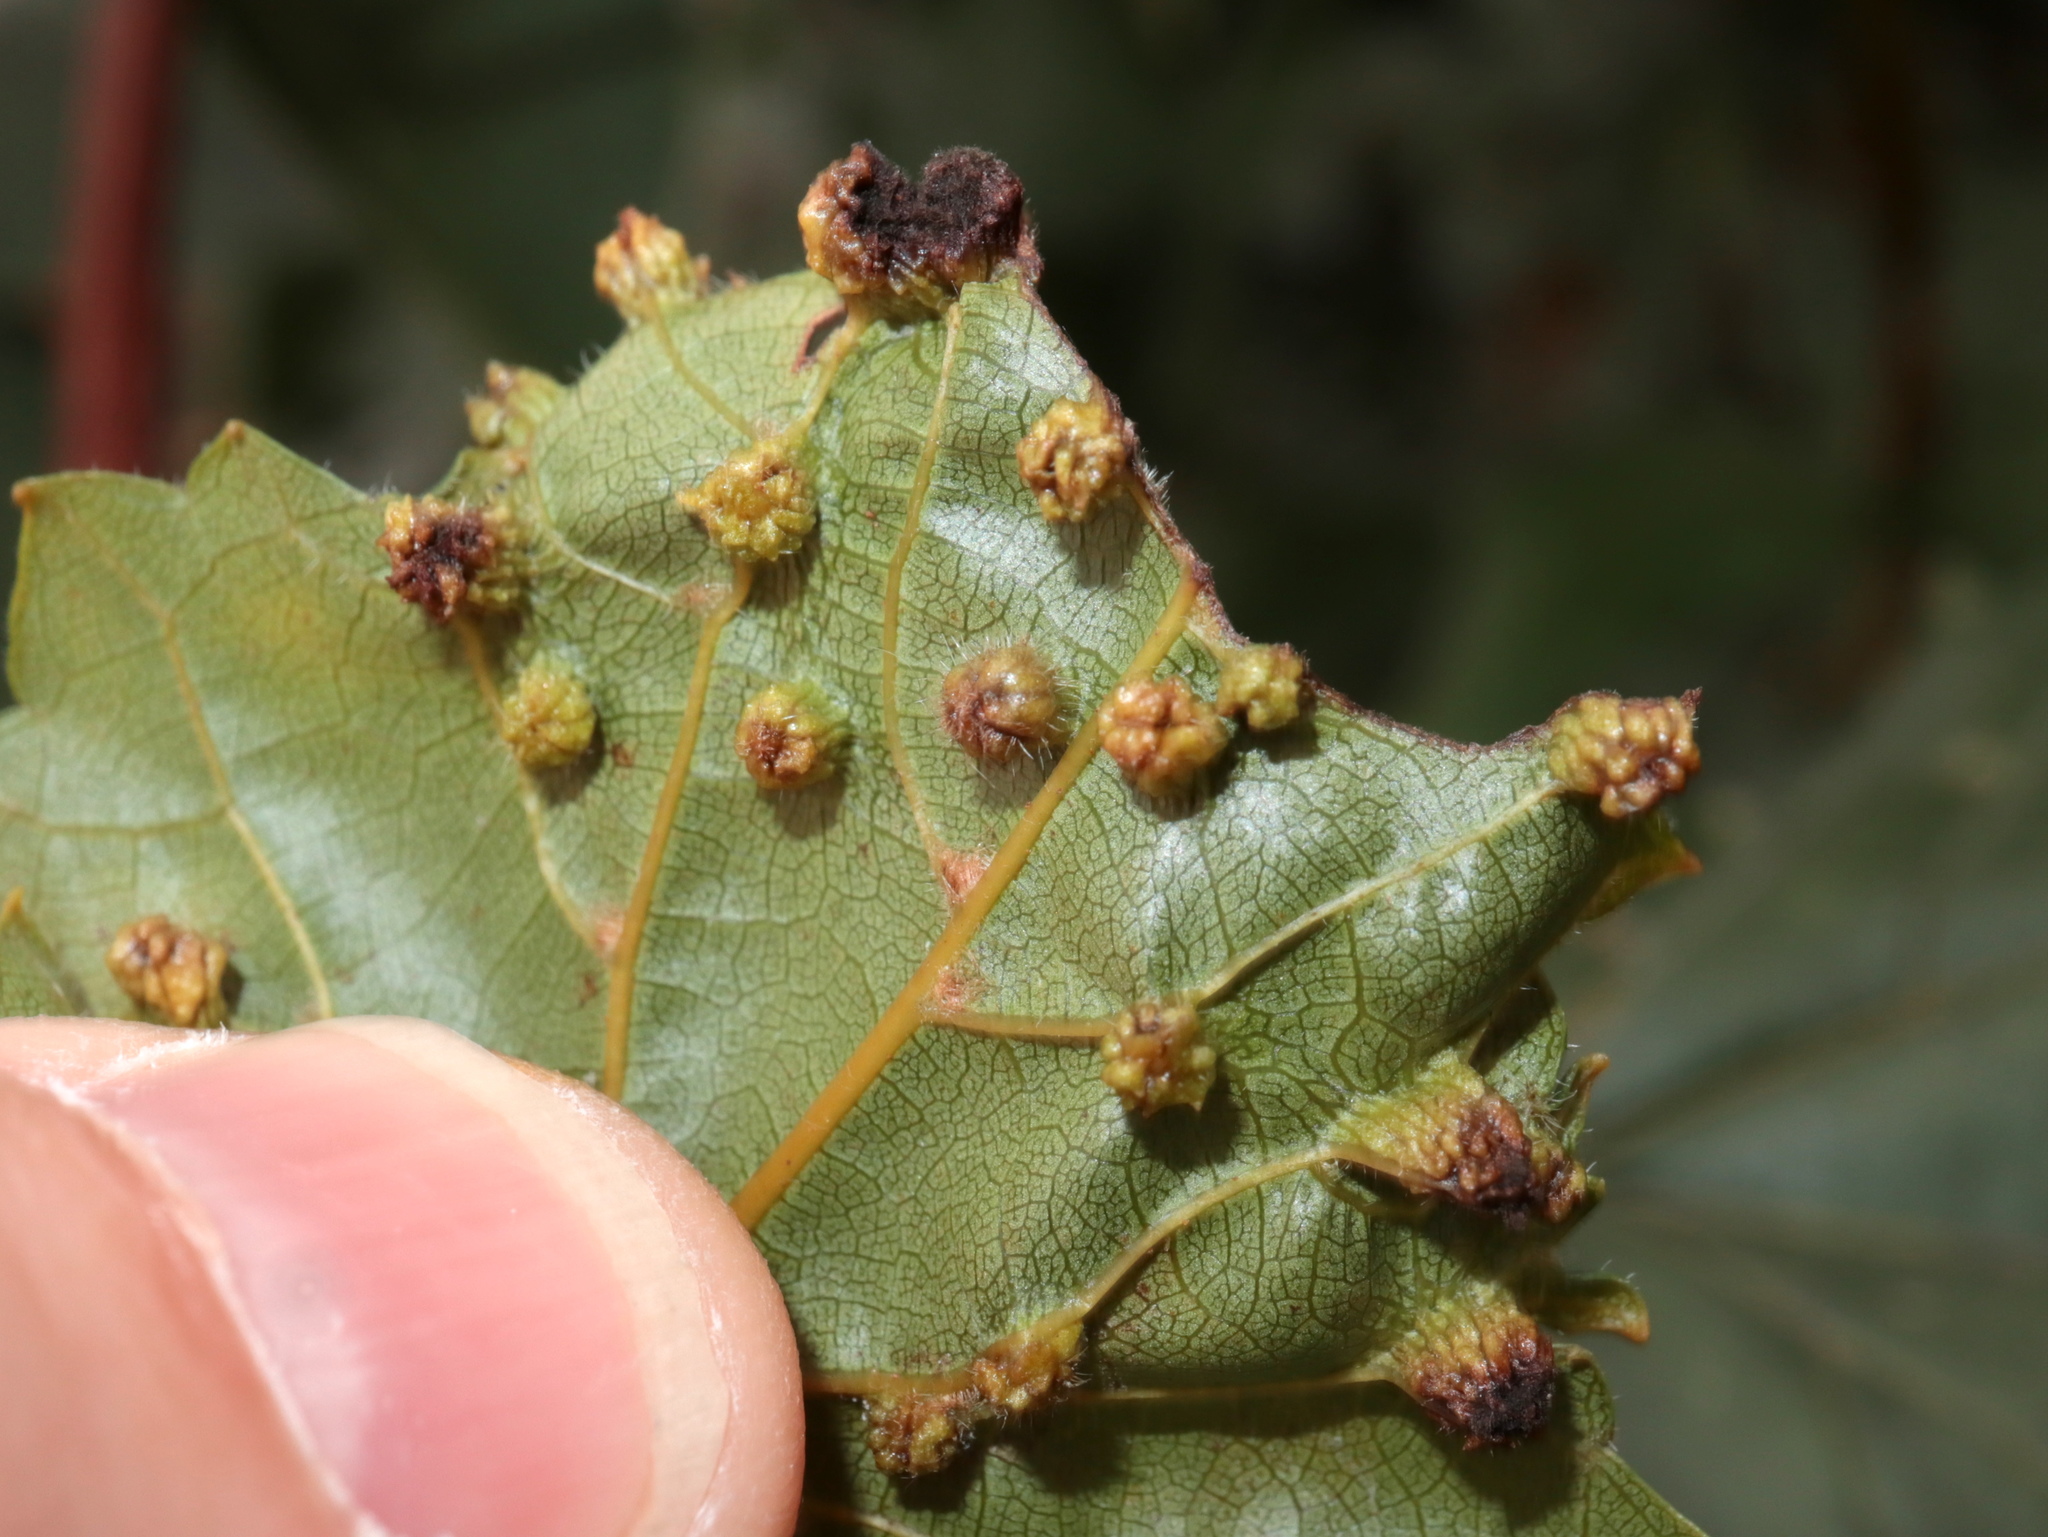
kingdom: Animalia
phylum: Arthropoda
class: Insecta
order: Hemiptera
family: Phylloxeridae
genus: Daktulosphaira
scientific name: Daktulosphaira vitifoliae
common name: Grape phylloxera
